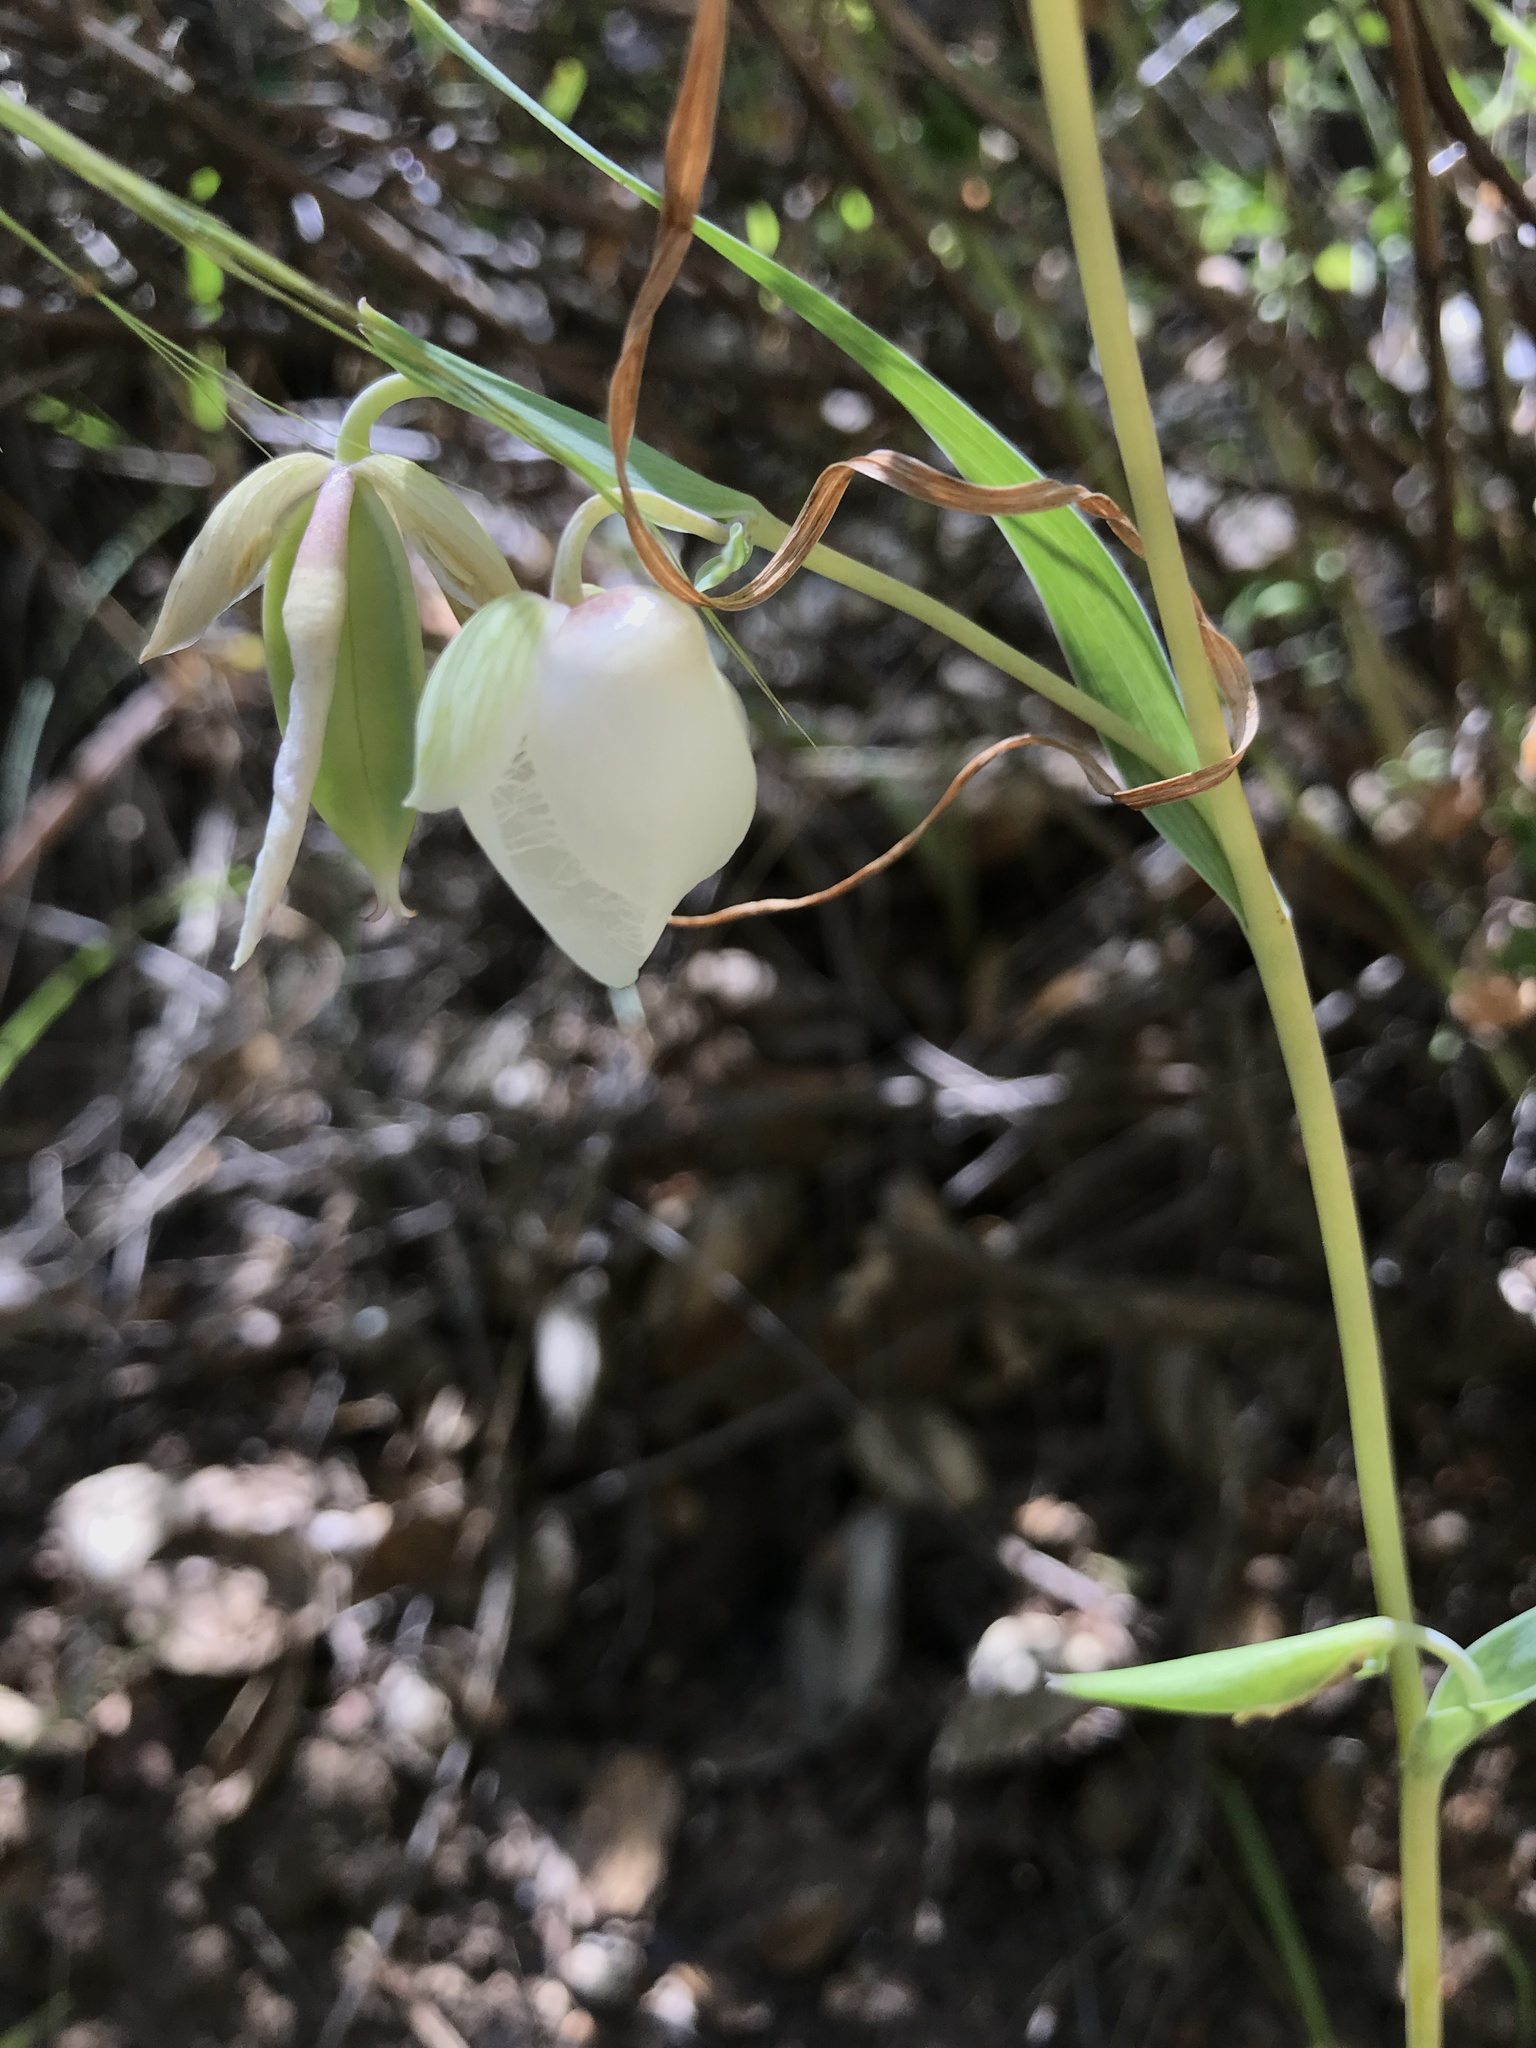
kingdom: Plantae
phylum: Tracheophyta
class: Liliopsida
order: Liliales
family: Liliaceae
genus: Calochortus
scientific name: Calochortus albus
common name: Fairy-lantern
